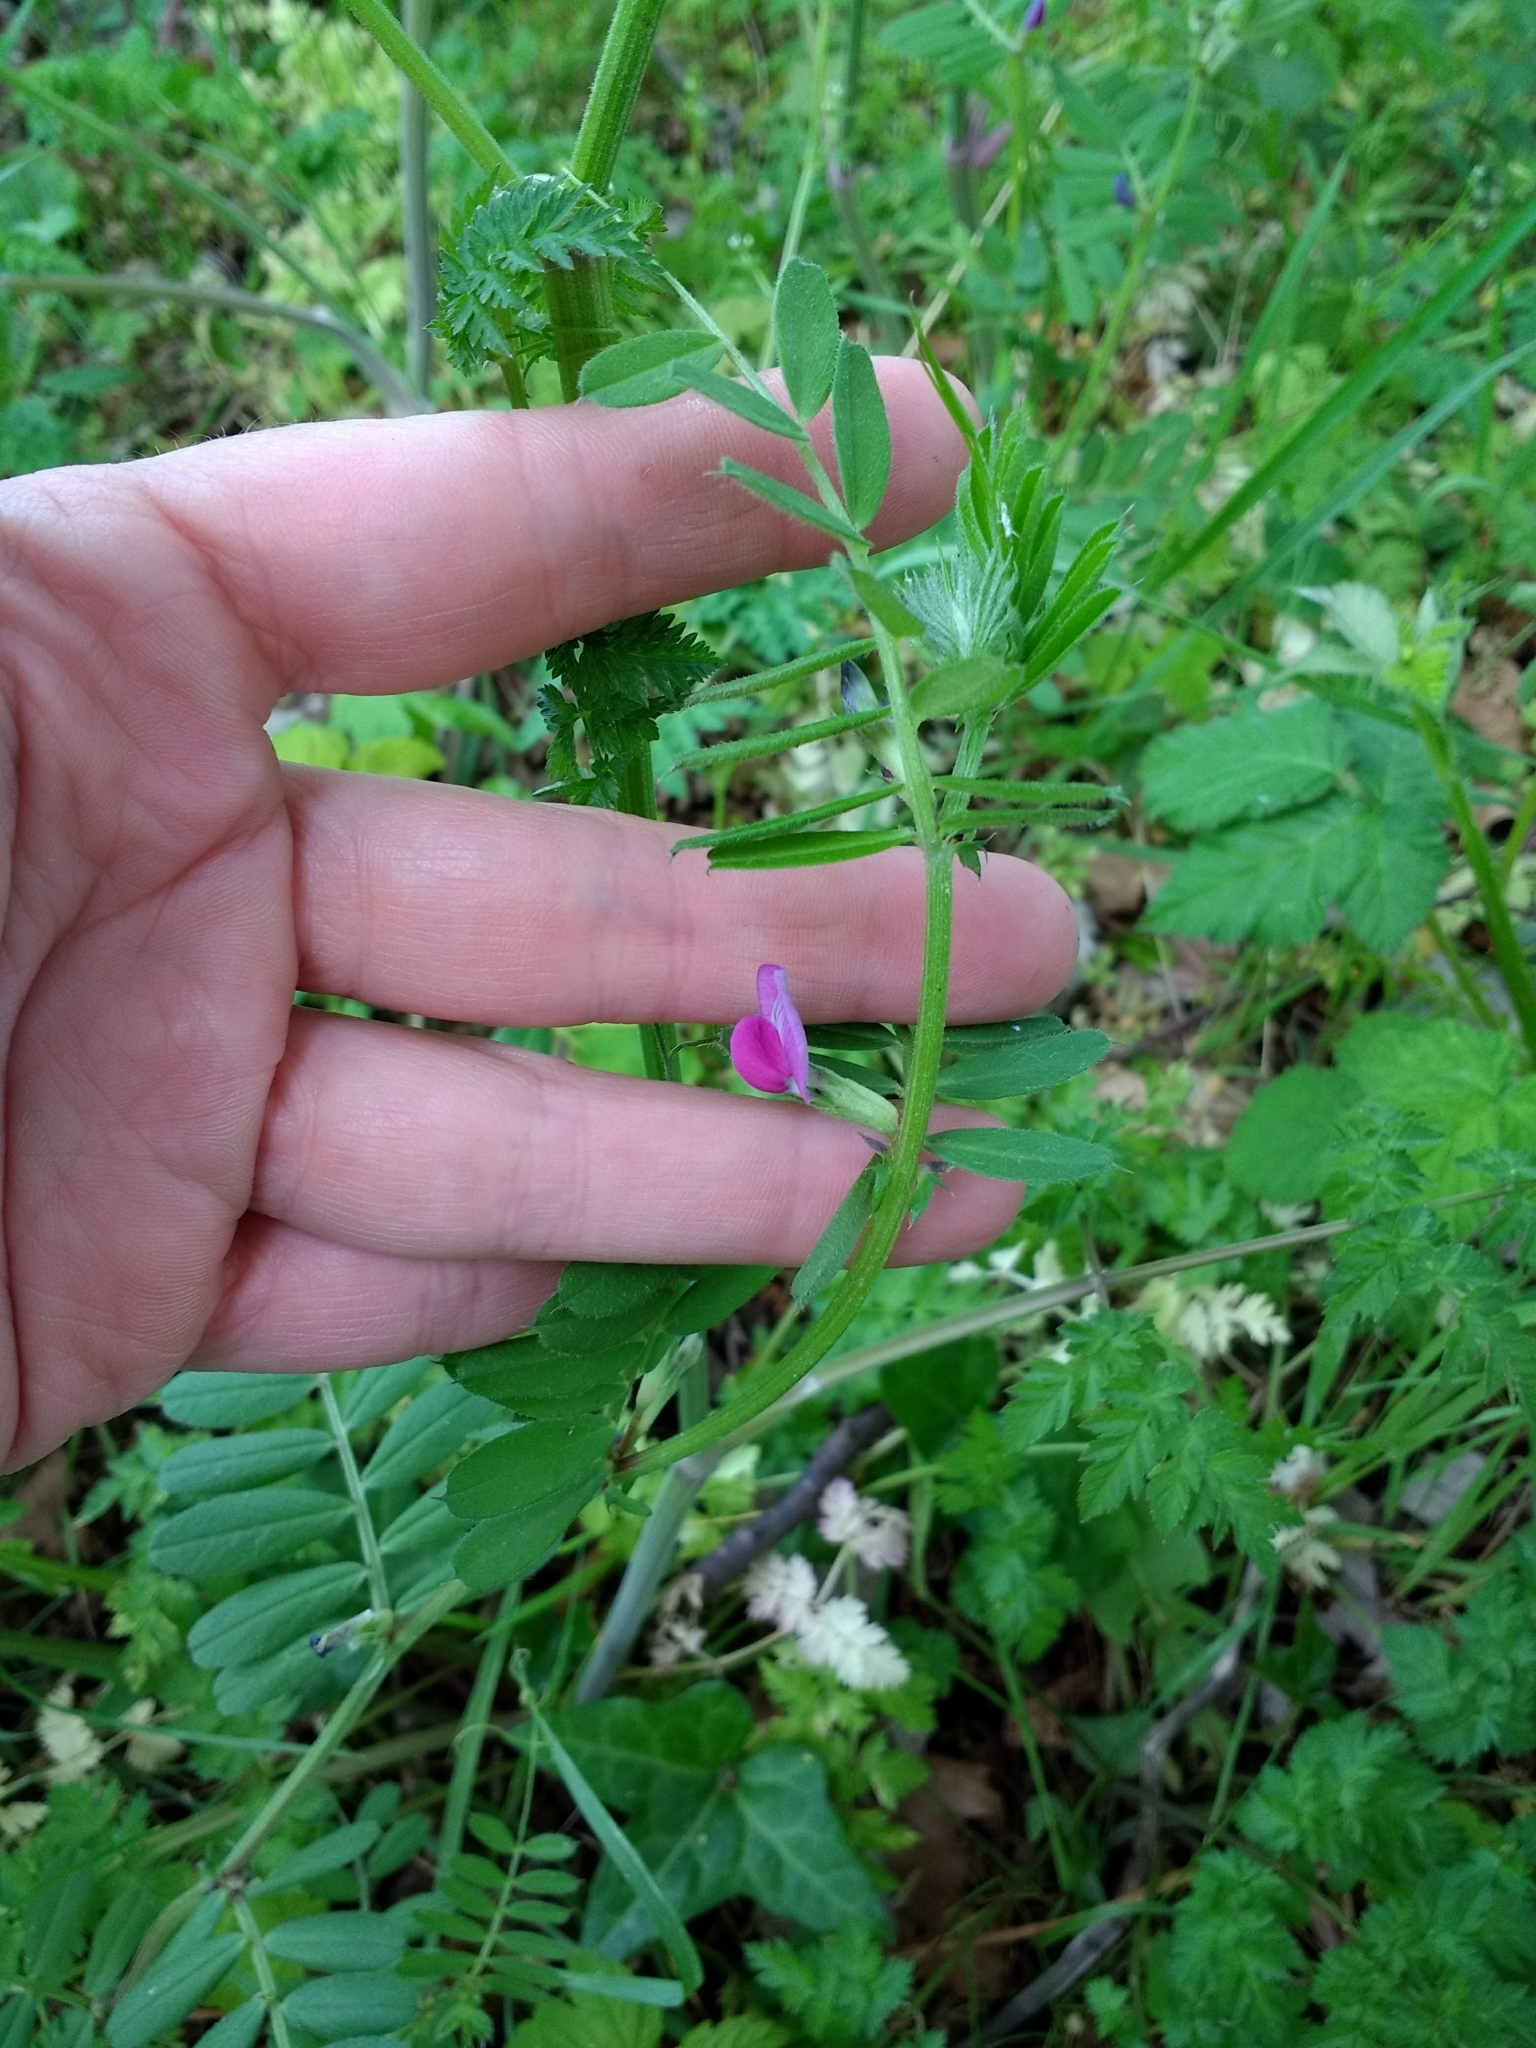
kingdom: Plantae
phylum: Tracheophyta
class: Magnoliopsida
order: Fabales
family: Fabaceae
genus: Vicia
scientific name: Vicia sativa
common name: Garden vetch
